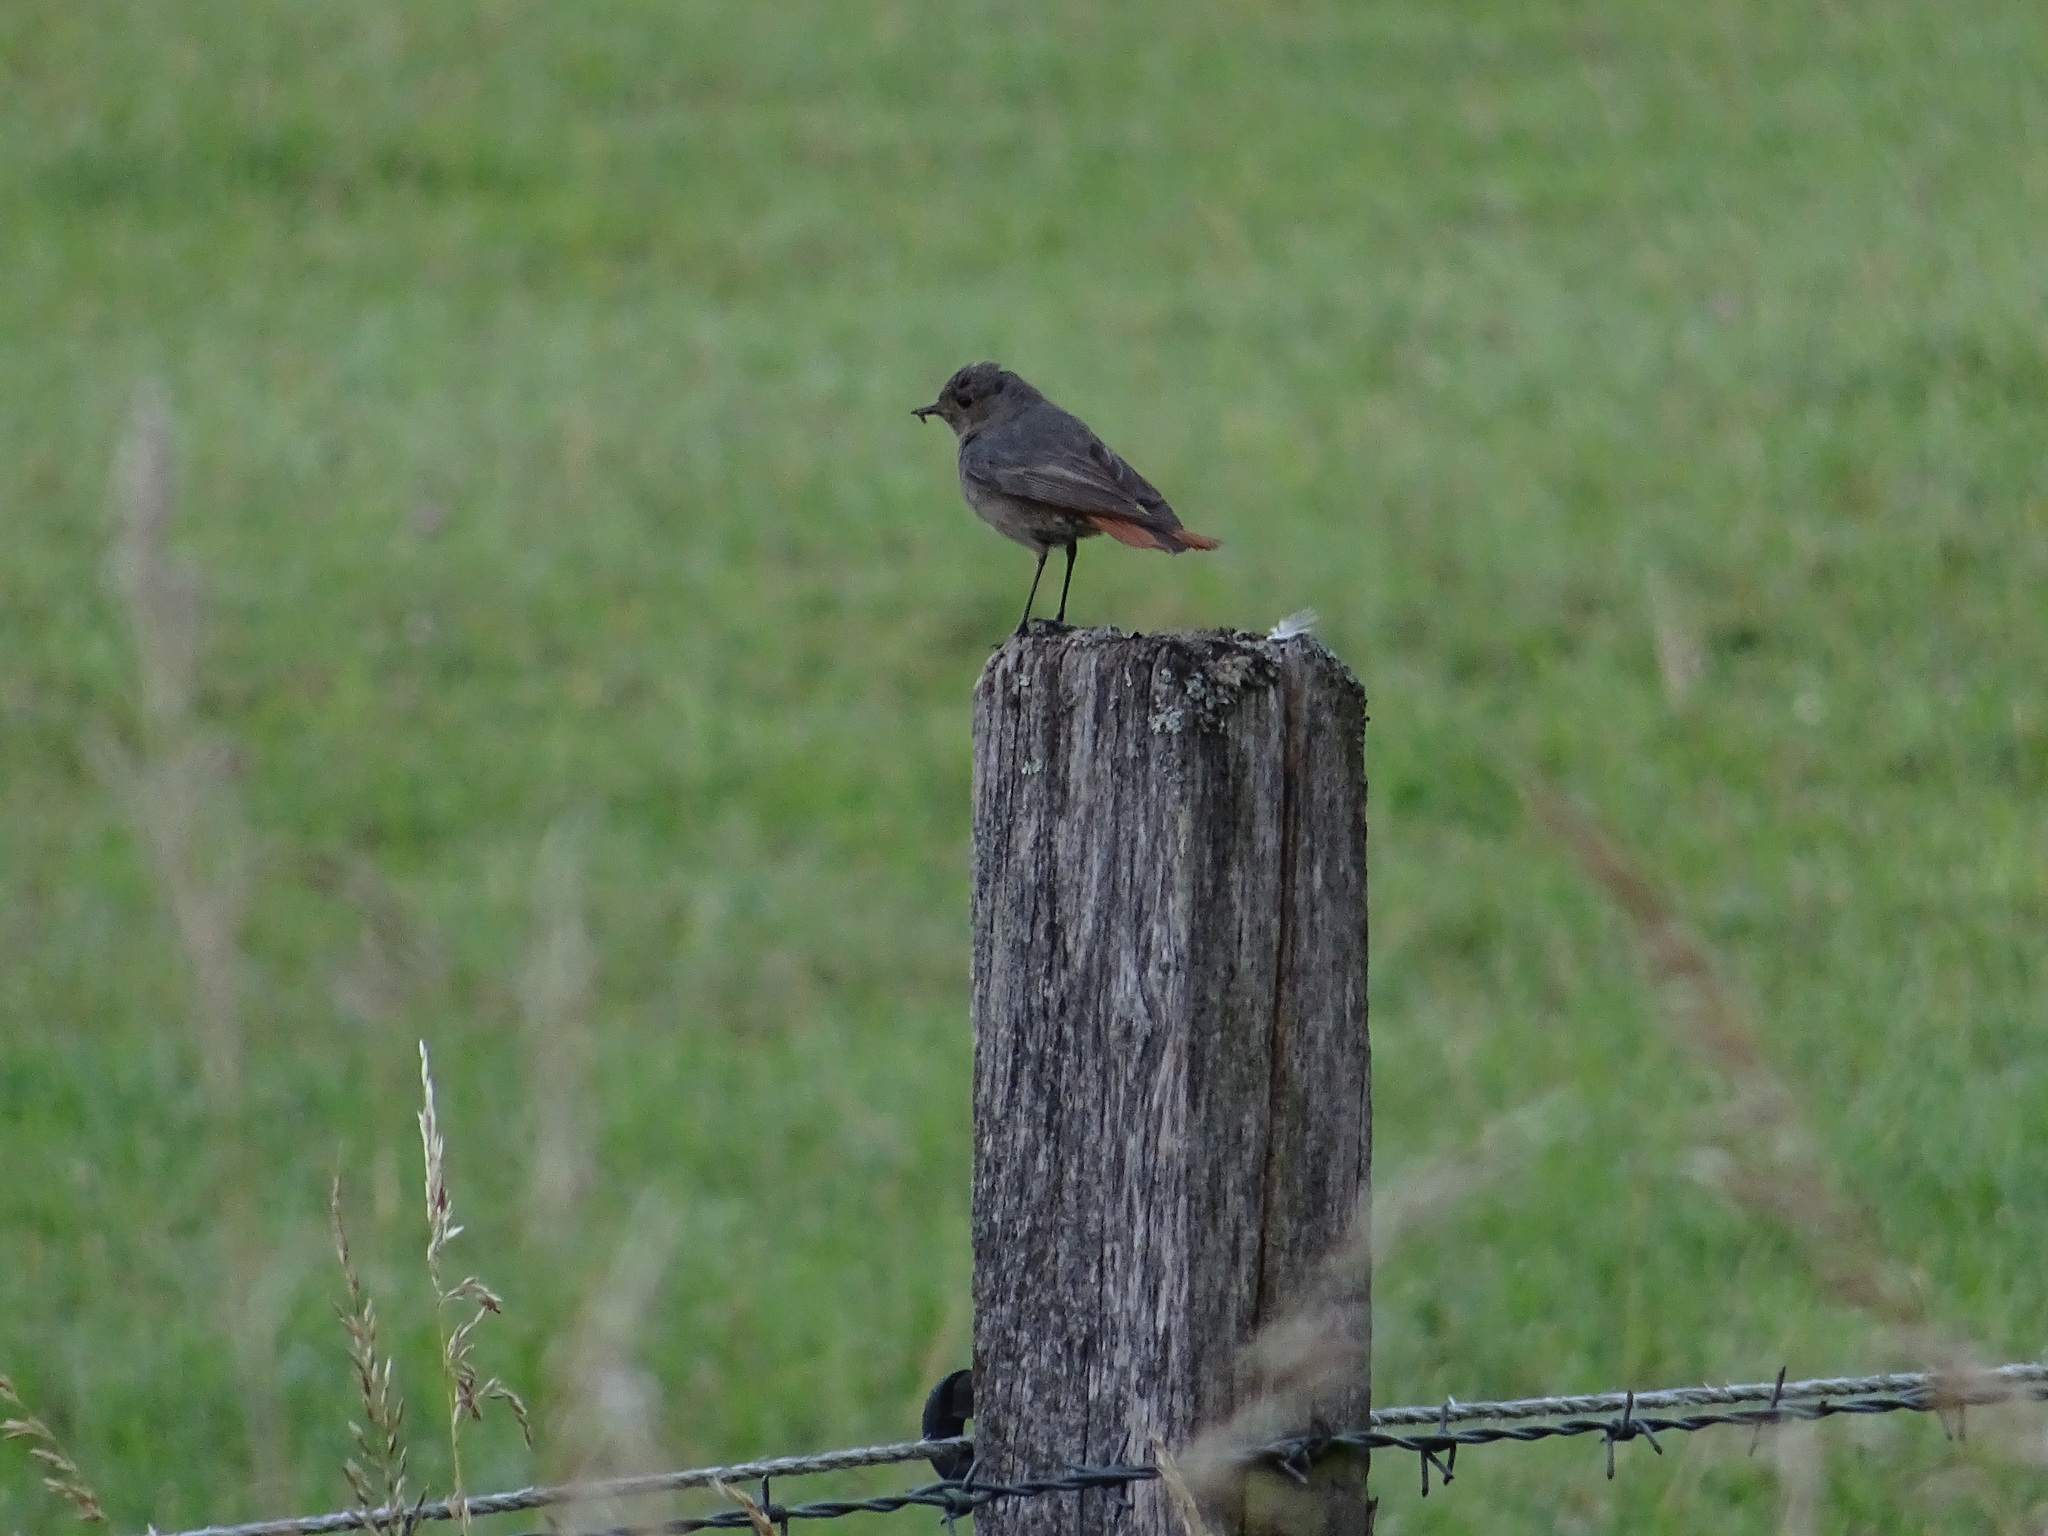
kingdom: Animalia
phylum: Chordata
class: Aves
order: Passeriformes
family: Muscicapidae
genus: Phoenicurus
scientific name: Phoenicurus ochruros
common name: Black redstart
